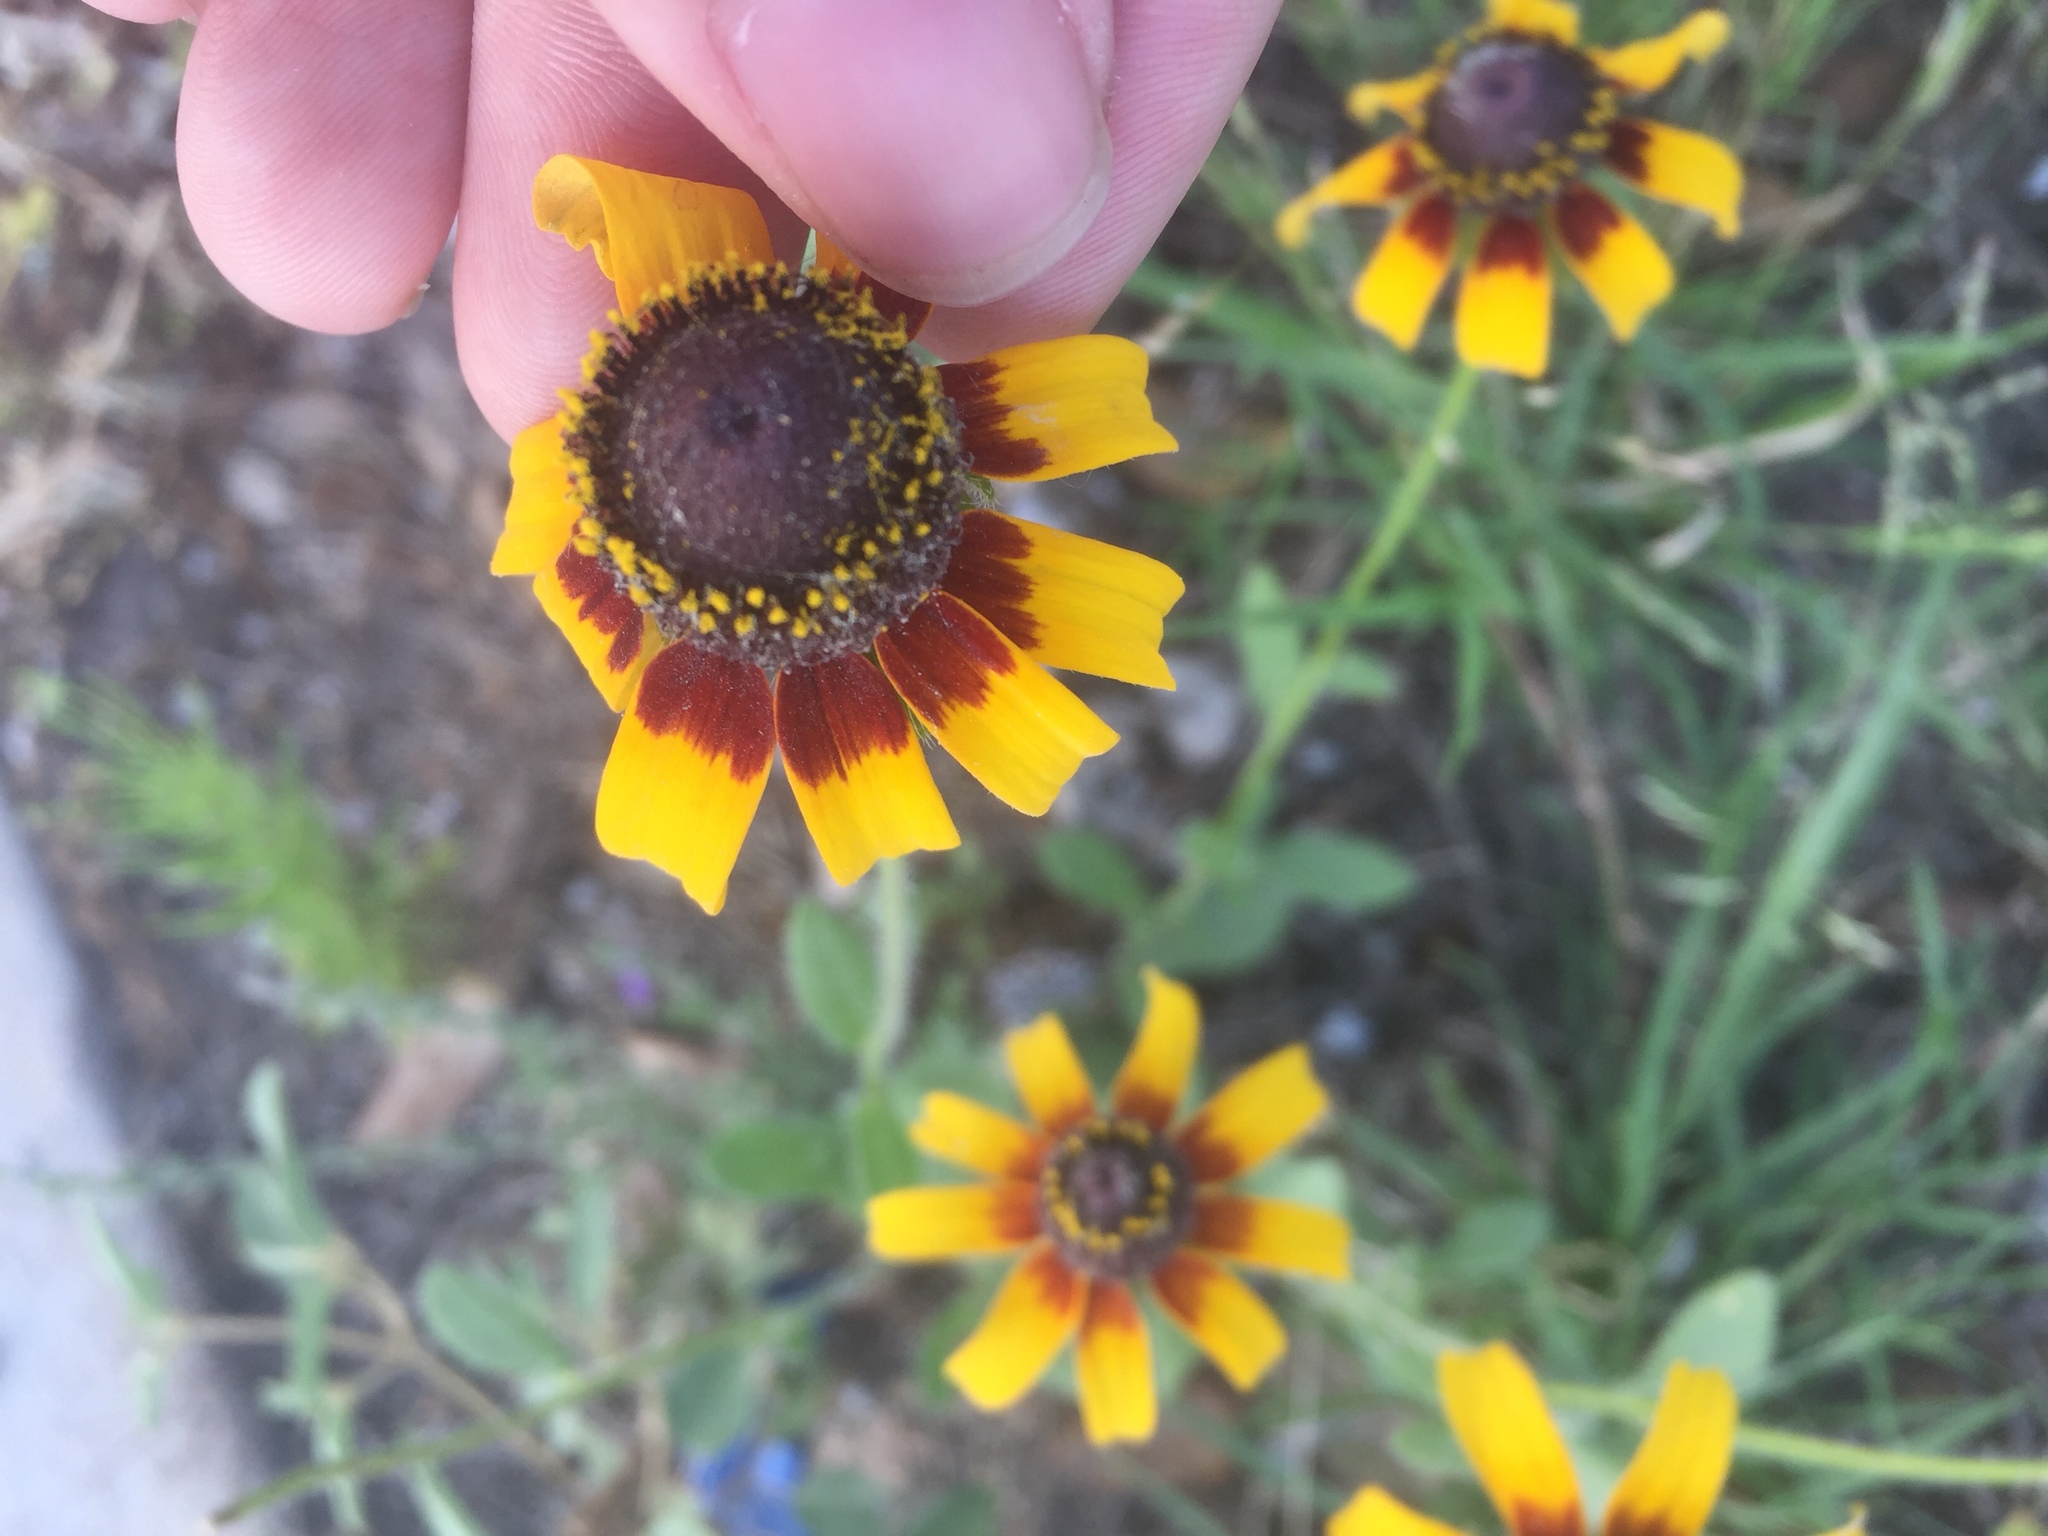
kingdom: Plantae
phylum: Tracheophyta
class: Magnoliopsida
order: Asterales
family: Asteraceae
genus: Rudbeckia
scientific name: Rudbeckia hirta
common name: Black-eyed-susan
